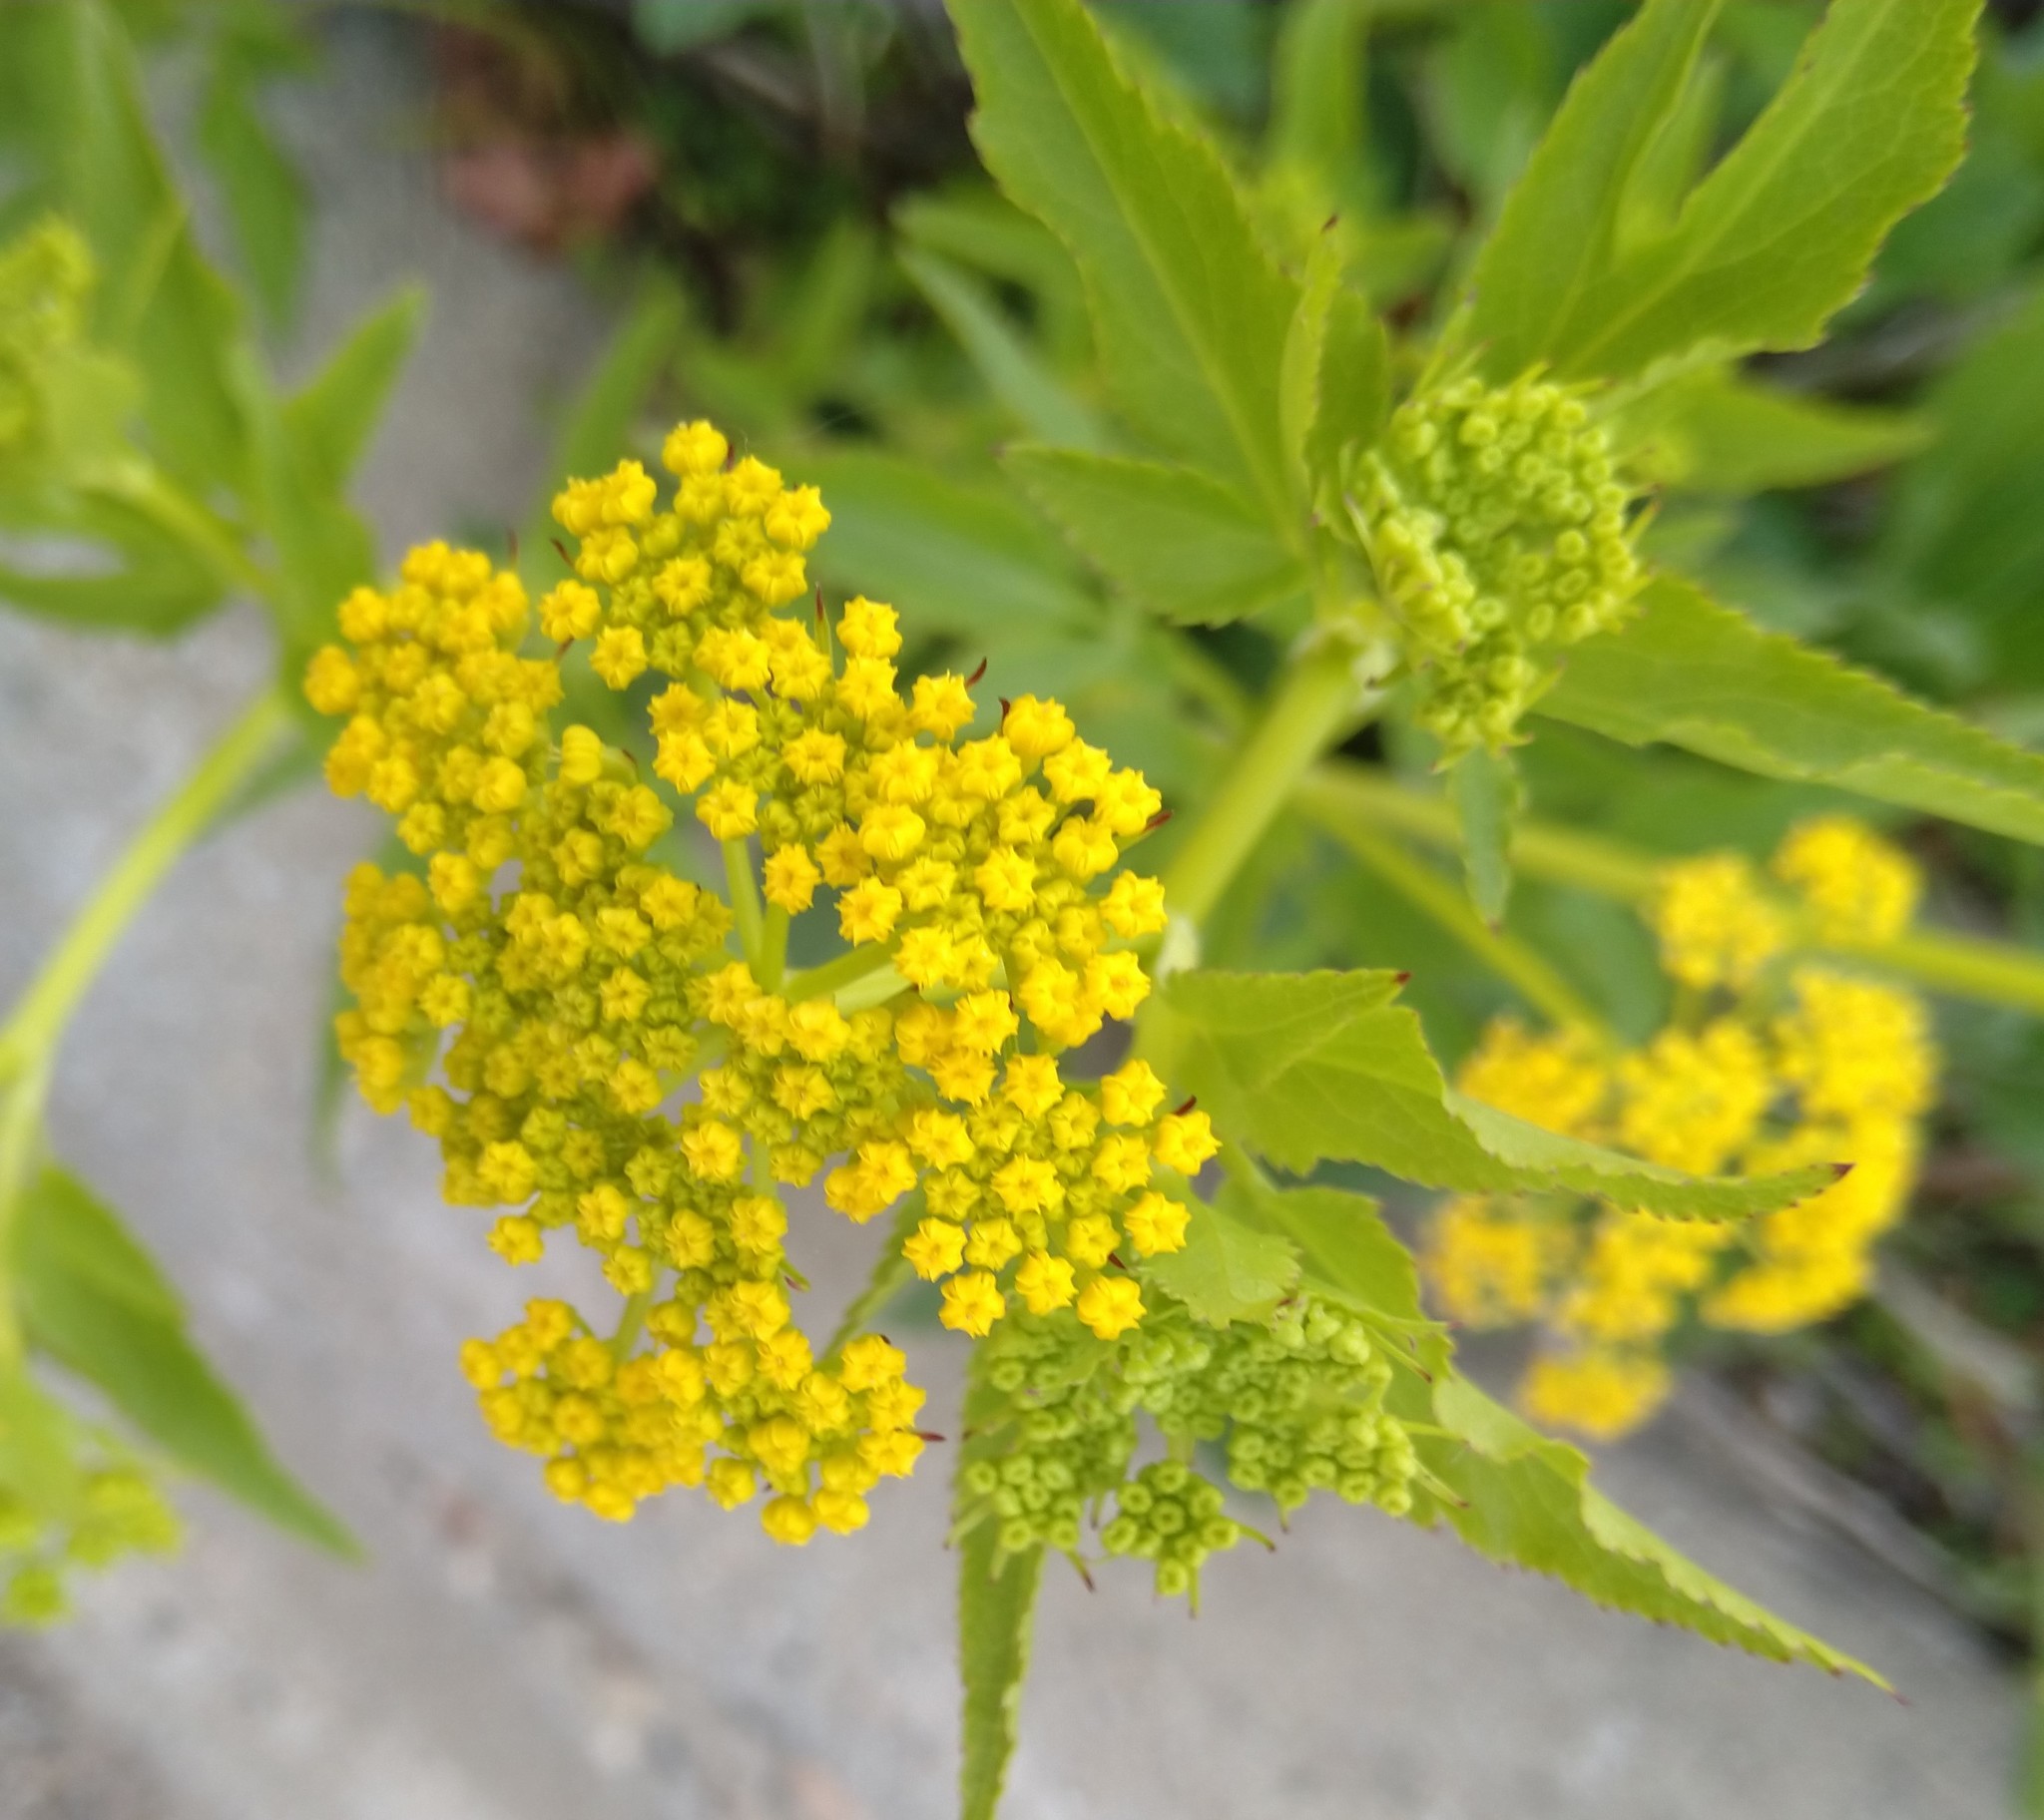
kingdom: Plantae
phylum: Tracheophyta
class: Magnoliopsida
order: Apiales
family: Apiaceae
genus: Zizia
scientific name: Zizia aurea
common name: Golden alexanders
